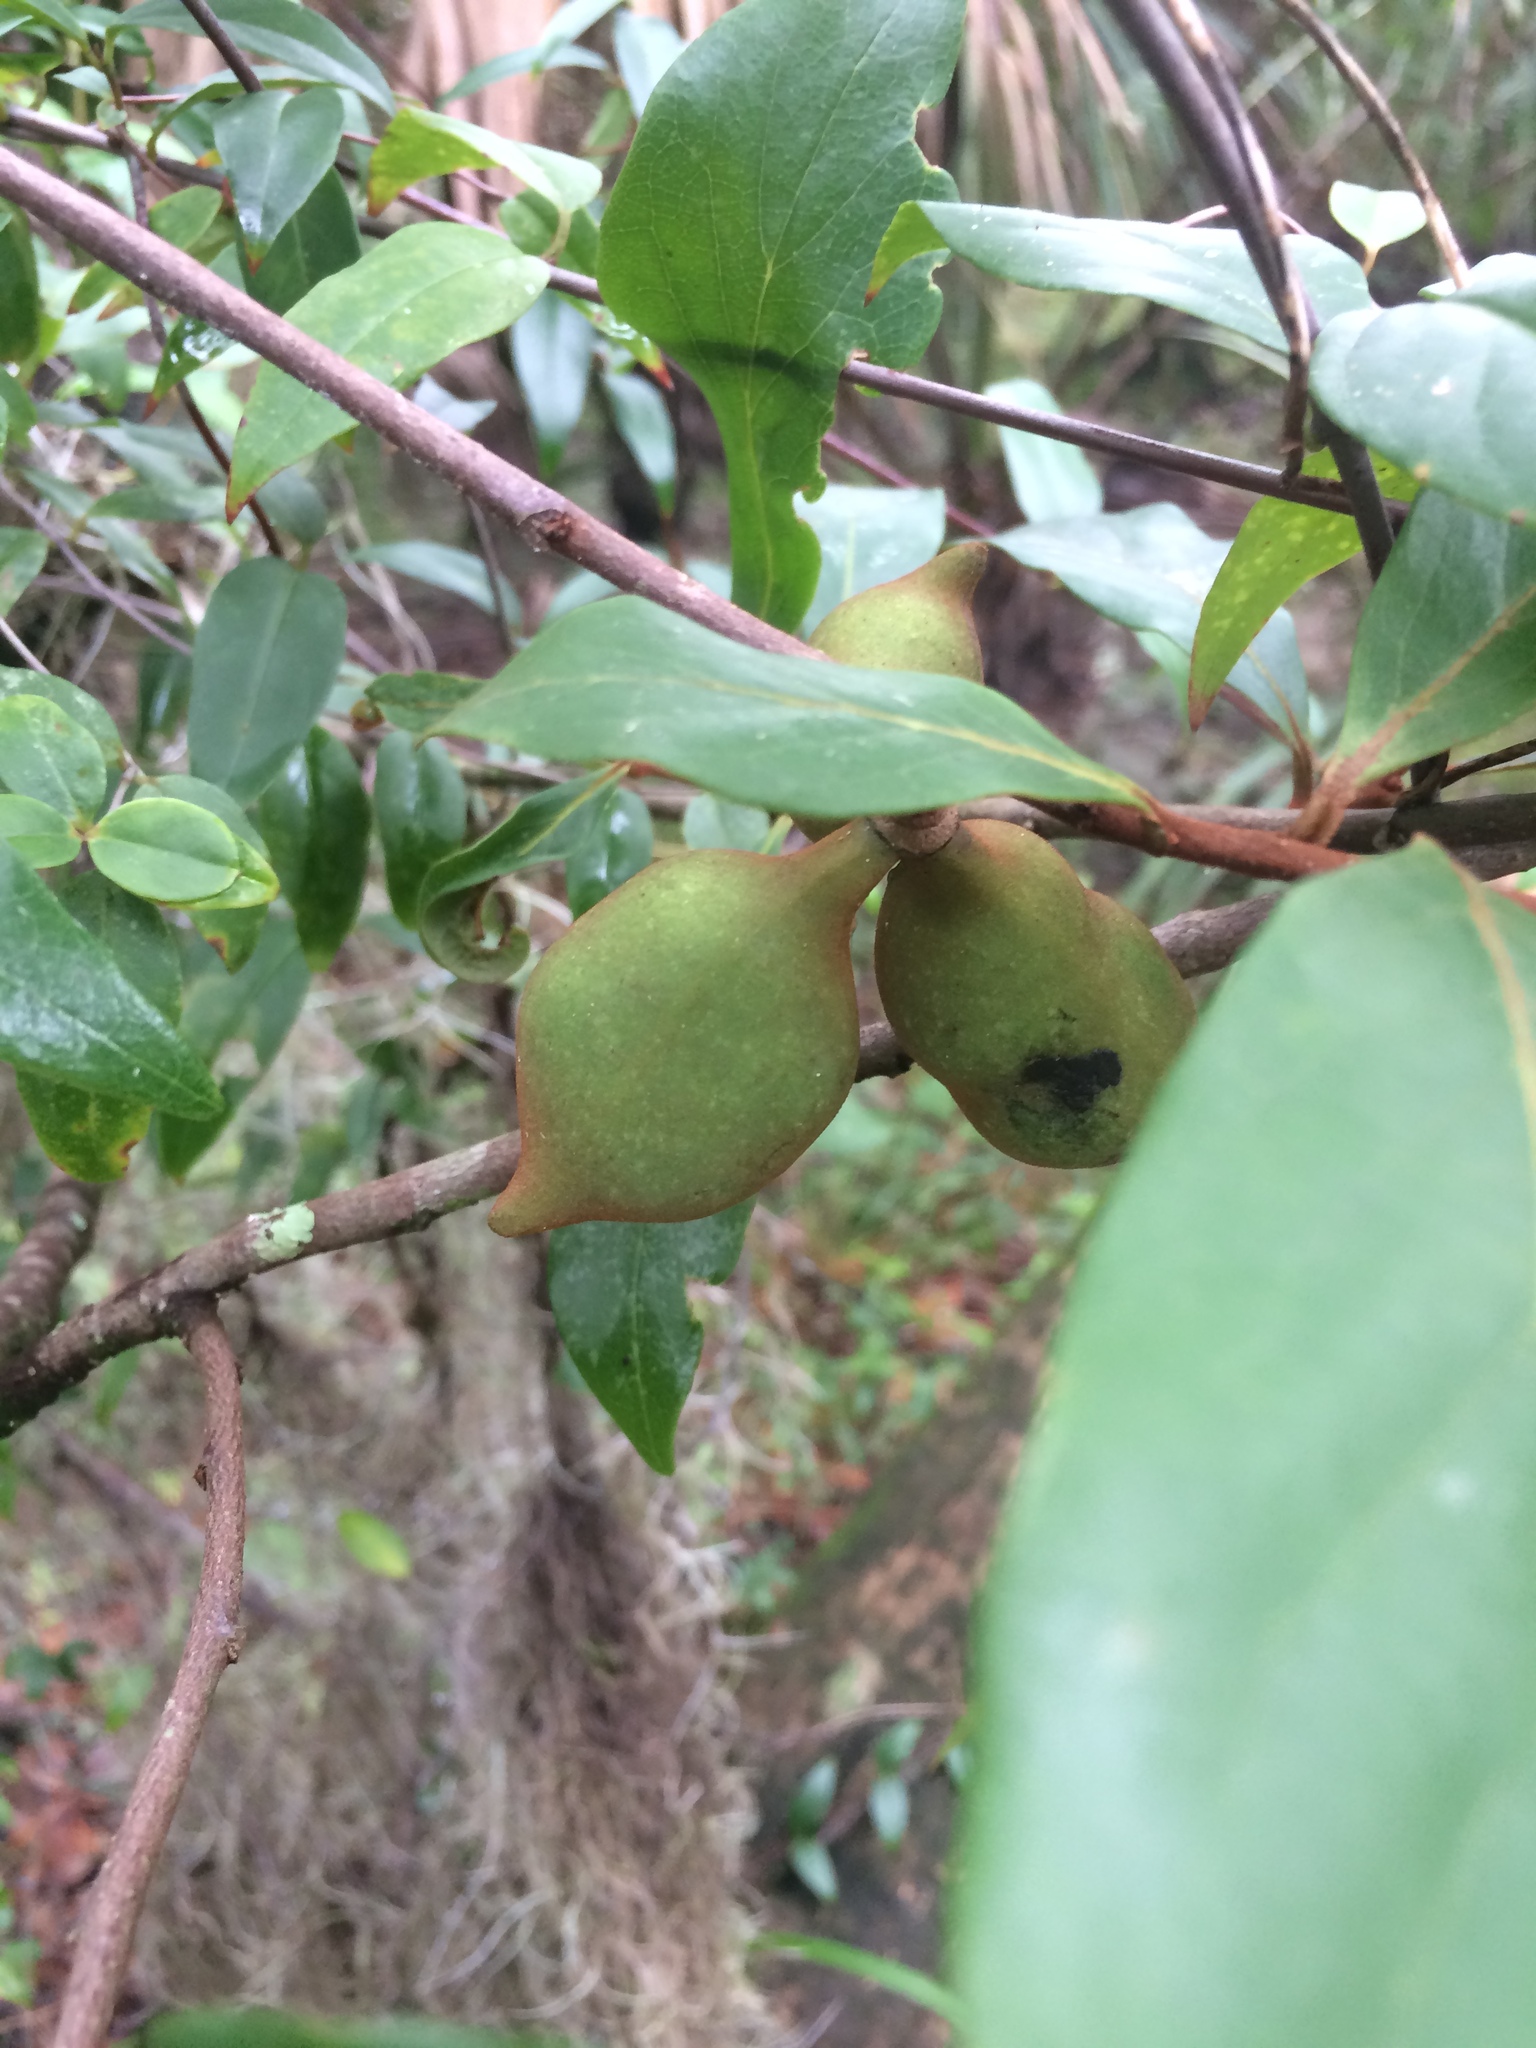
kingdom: Plantae
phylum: Tracheophyta
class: Magnoliopsida
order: Magnoliales
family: Annonaceae
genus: Asimina
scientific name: Asimina parviflora
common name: Dwarf pawpaw
